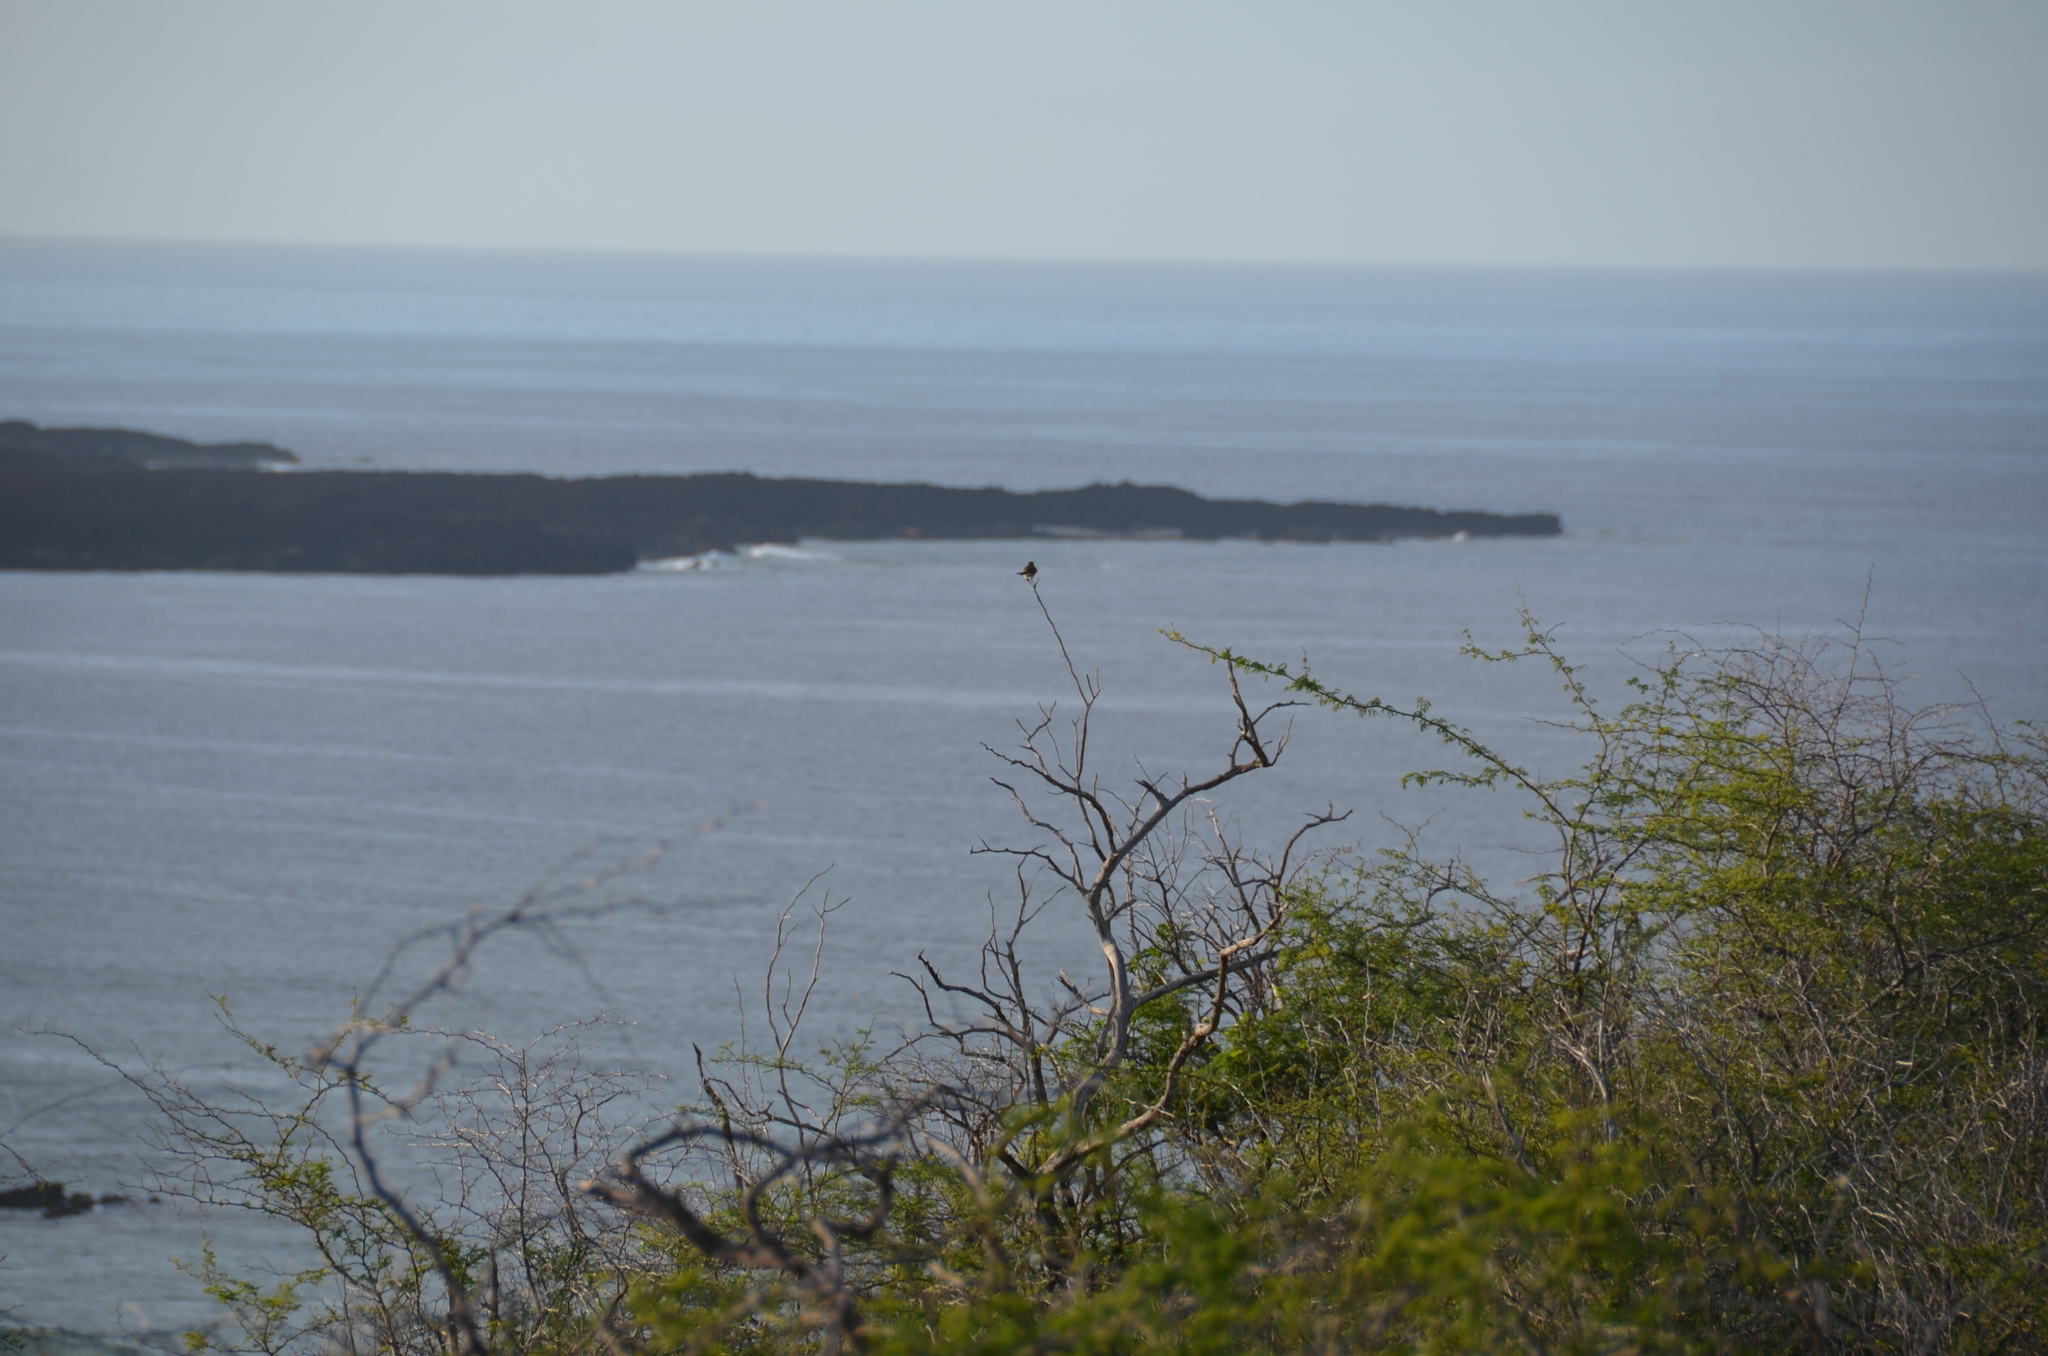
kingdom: Animalia
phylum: Chordata
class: Aves
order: Passeriformes
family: Mimidae
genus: Mimus
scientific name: Mimus polyglottos
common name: Northern mockingbird
